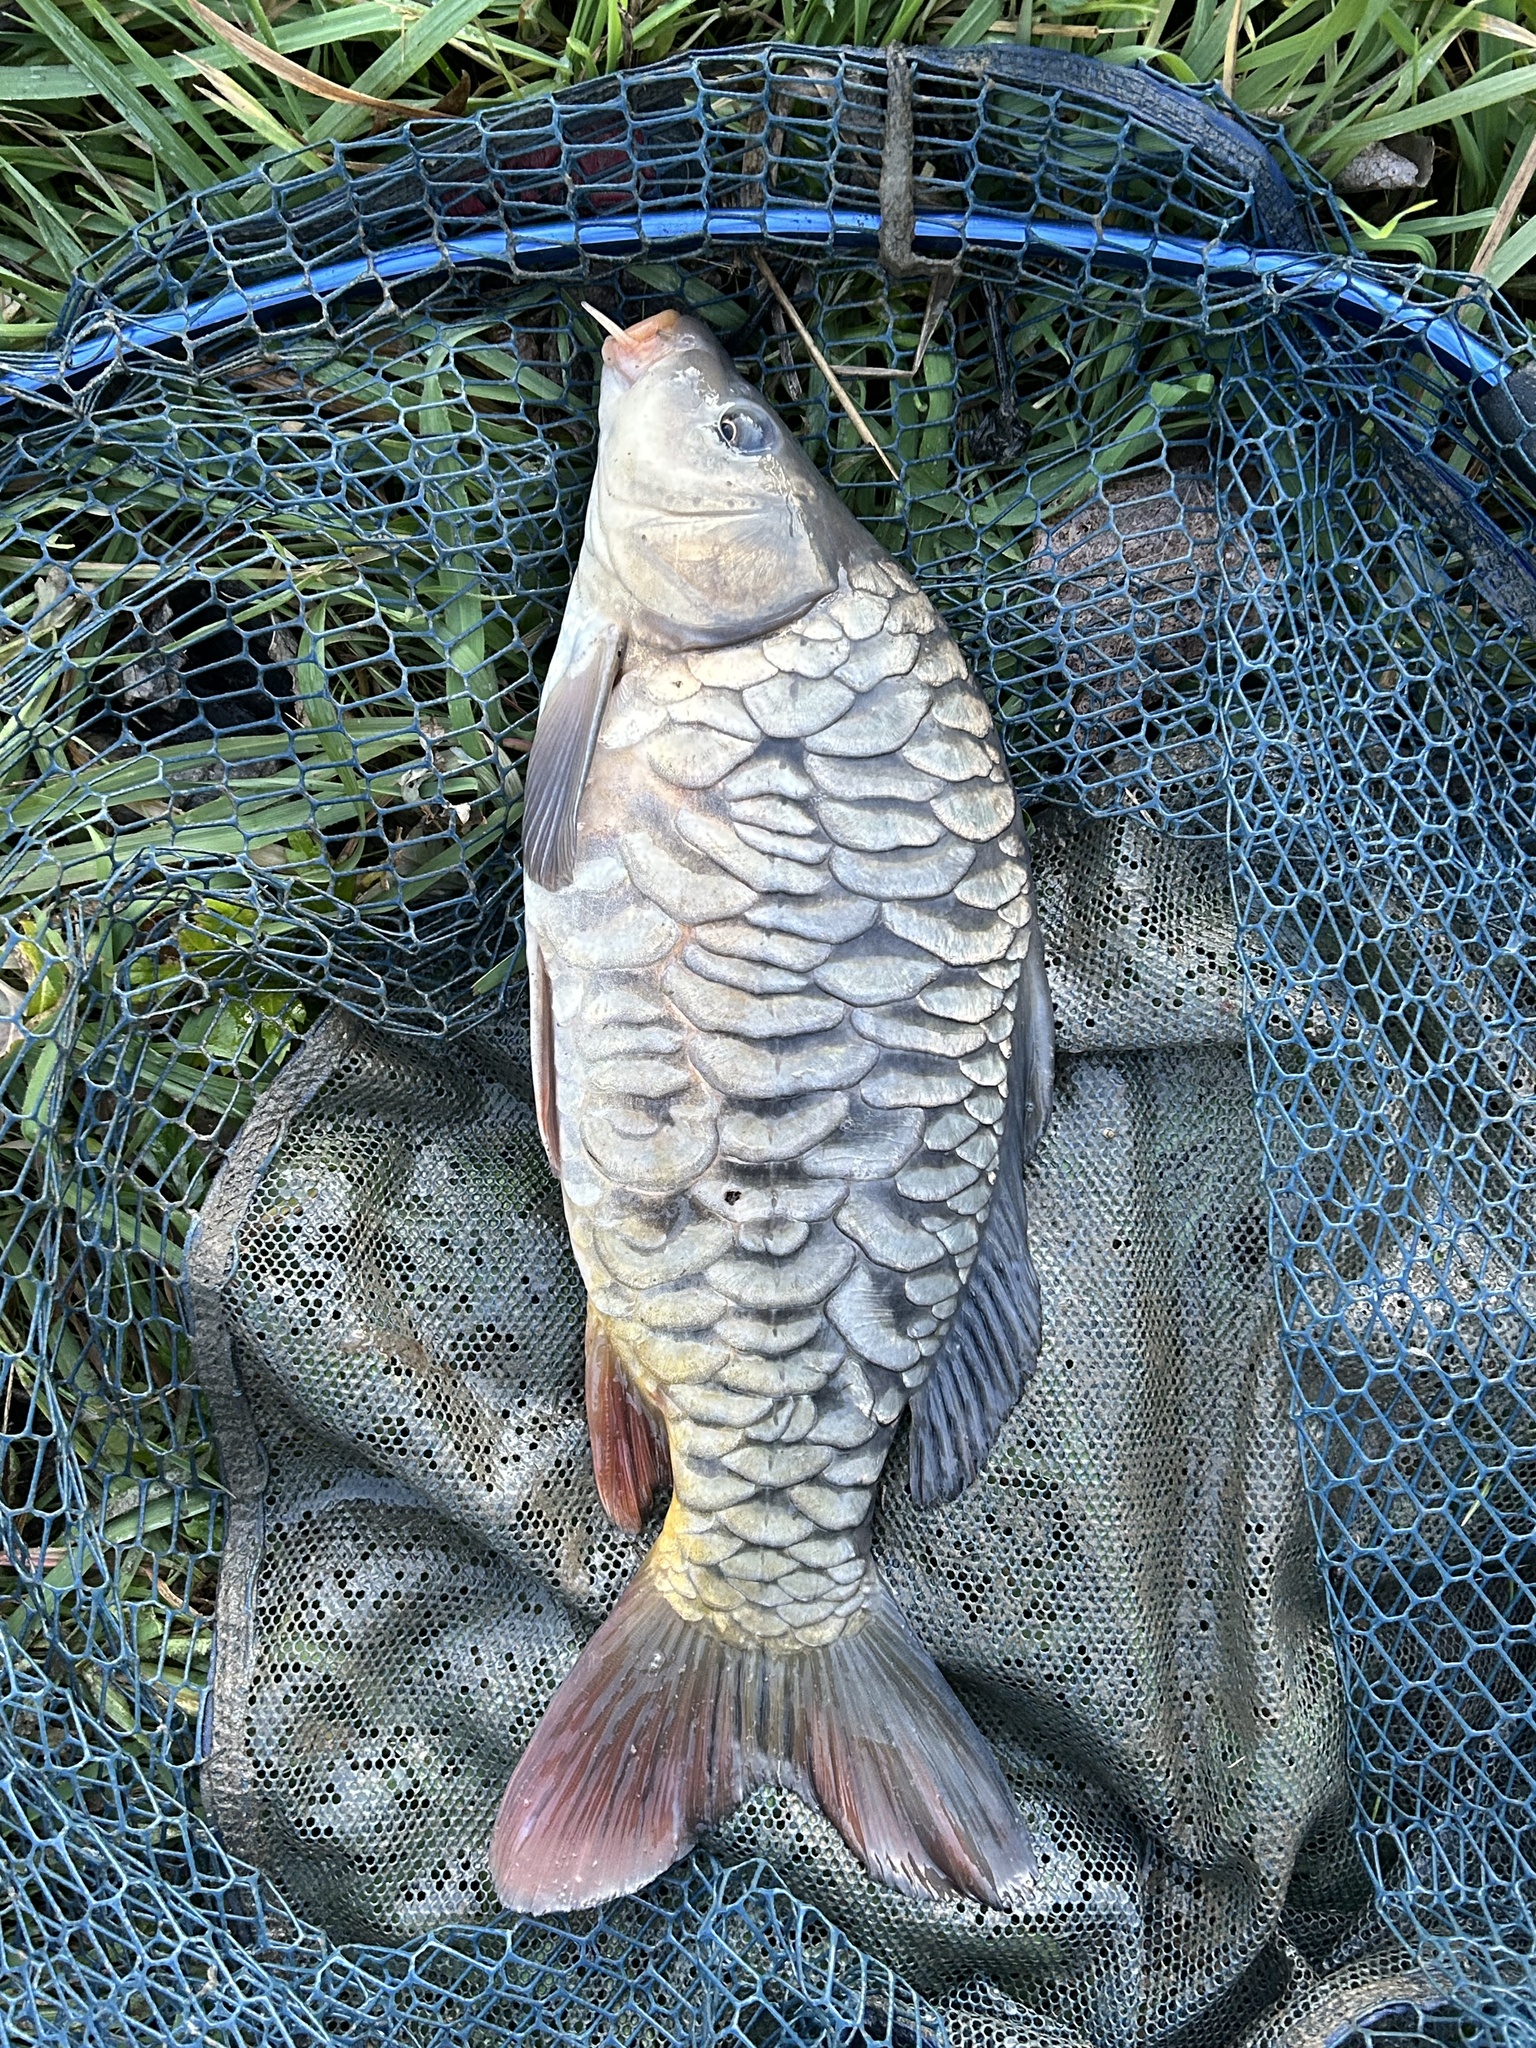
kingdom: Animalia
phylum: Chordata
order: Cypriniformes
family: Cyprinidae
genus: Cyprinus
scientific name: Cyprinus carpio
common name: Common carp
